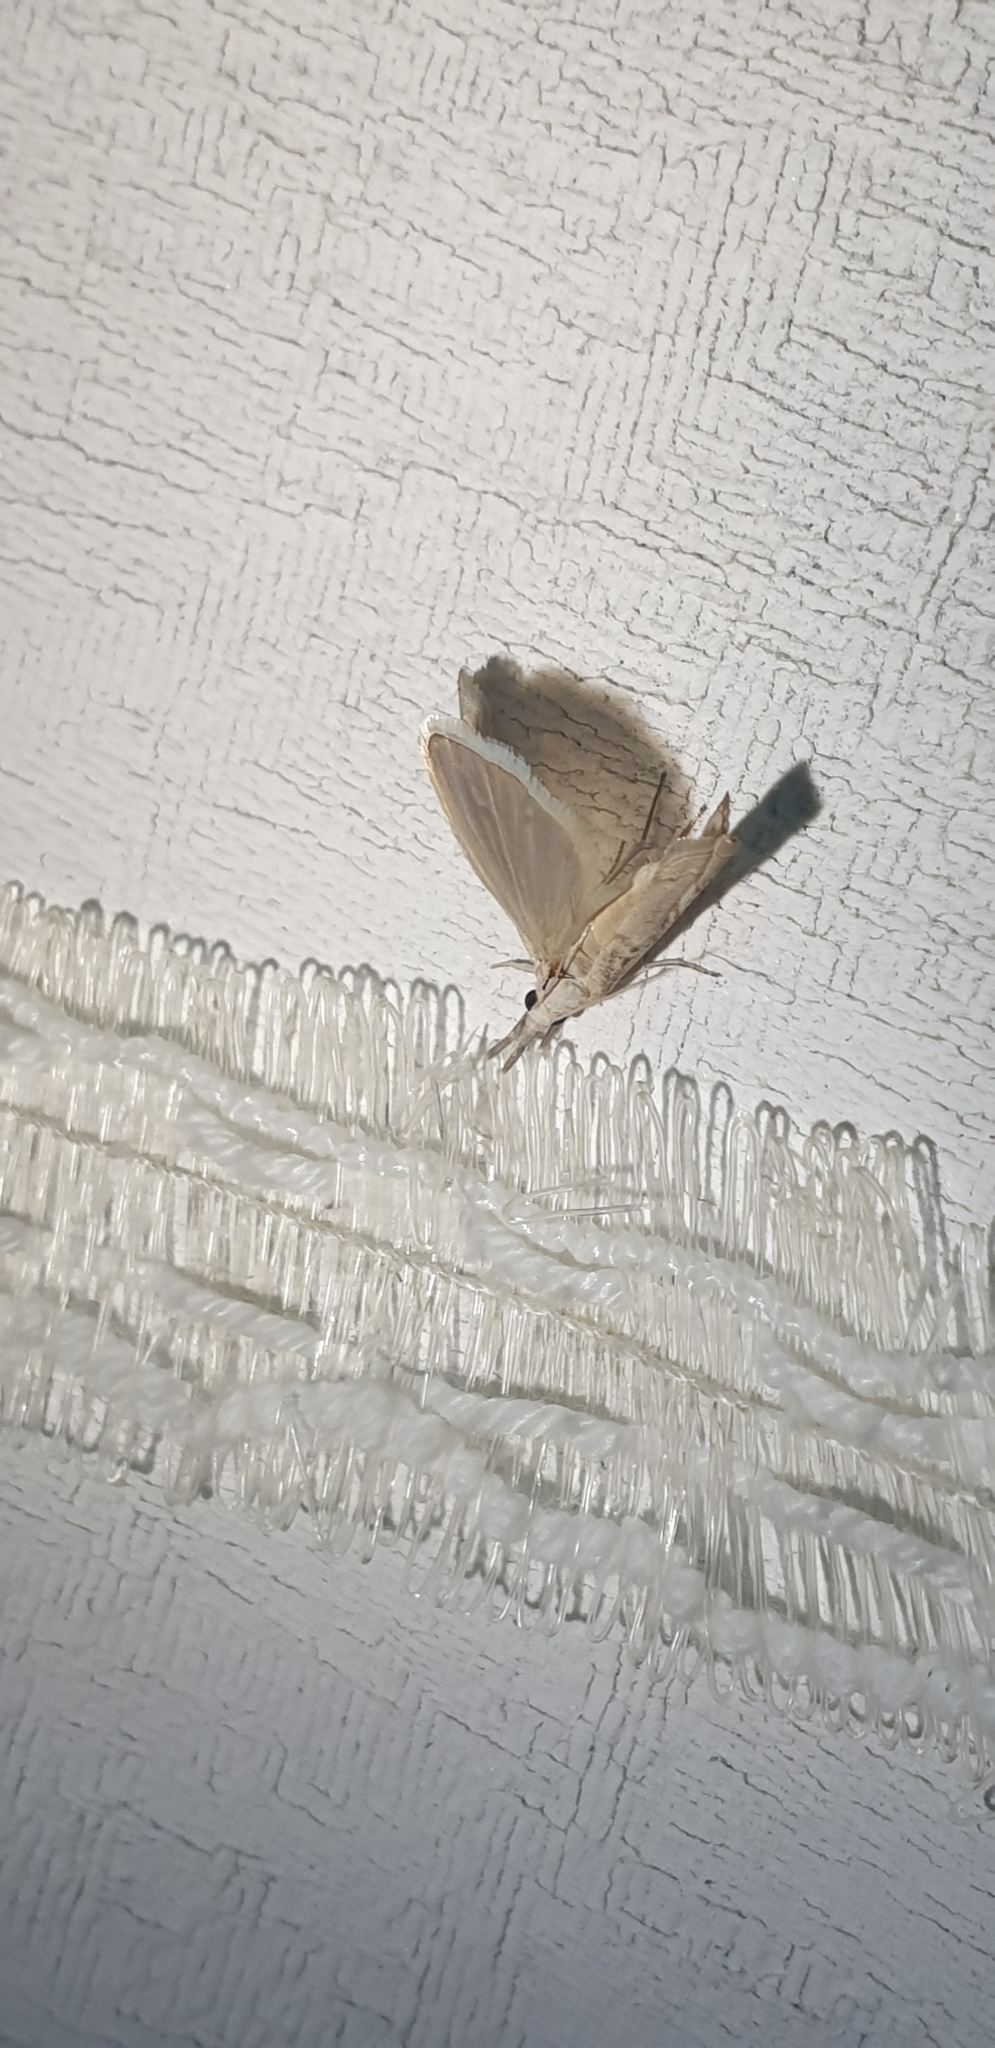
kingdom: Animalia
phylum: Arthropoda
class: Insecta
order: Lepidoptera
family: Crambidae
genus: Culladia
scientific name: Culladia cuneiferellus
